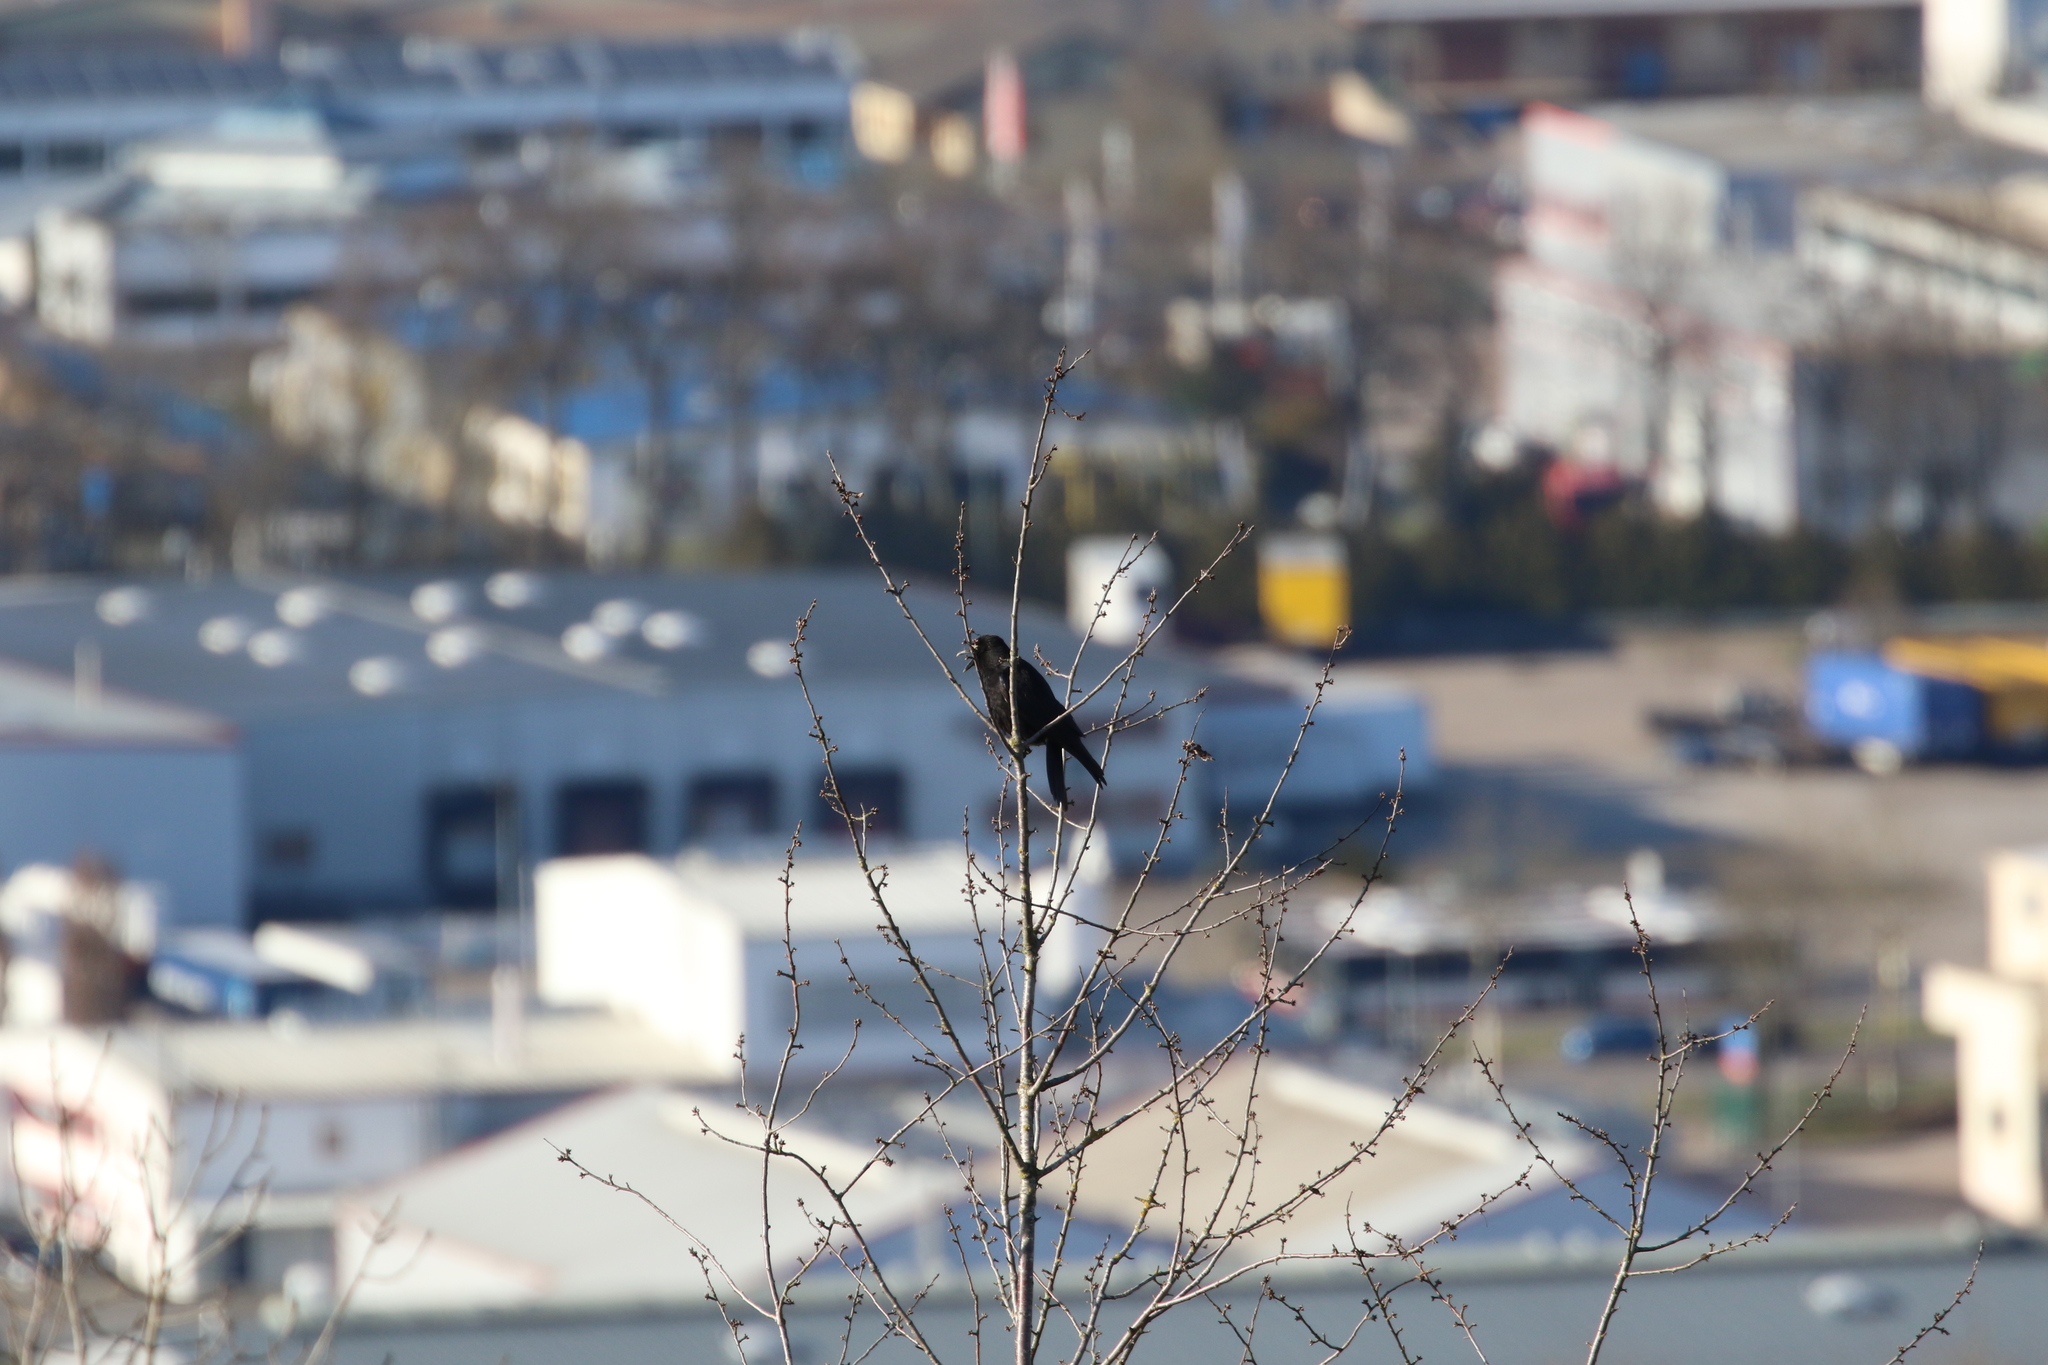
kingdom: Animalia
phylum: Chordata
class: Aves
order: Passeriformes
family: Corvidae
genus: Corvus
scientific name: Corvus corone
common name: Carrion crow
